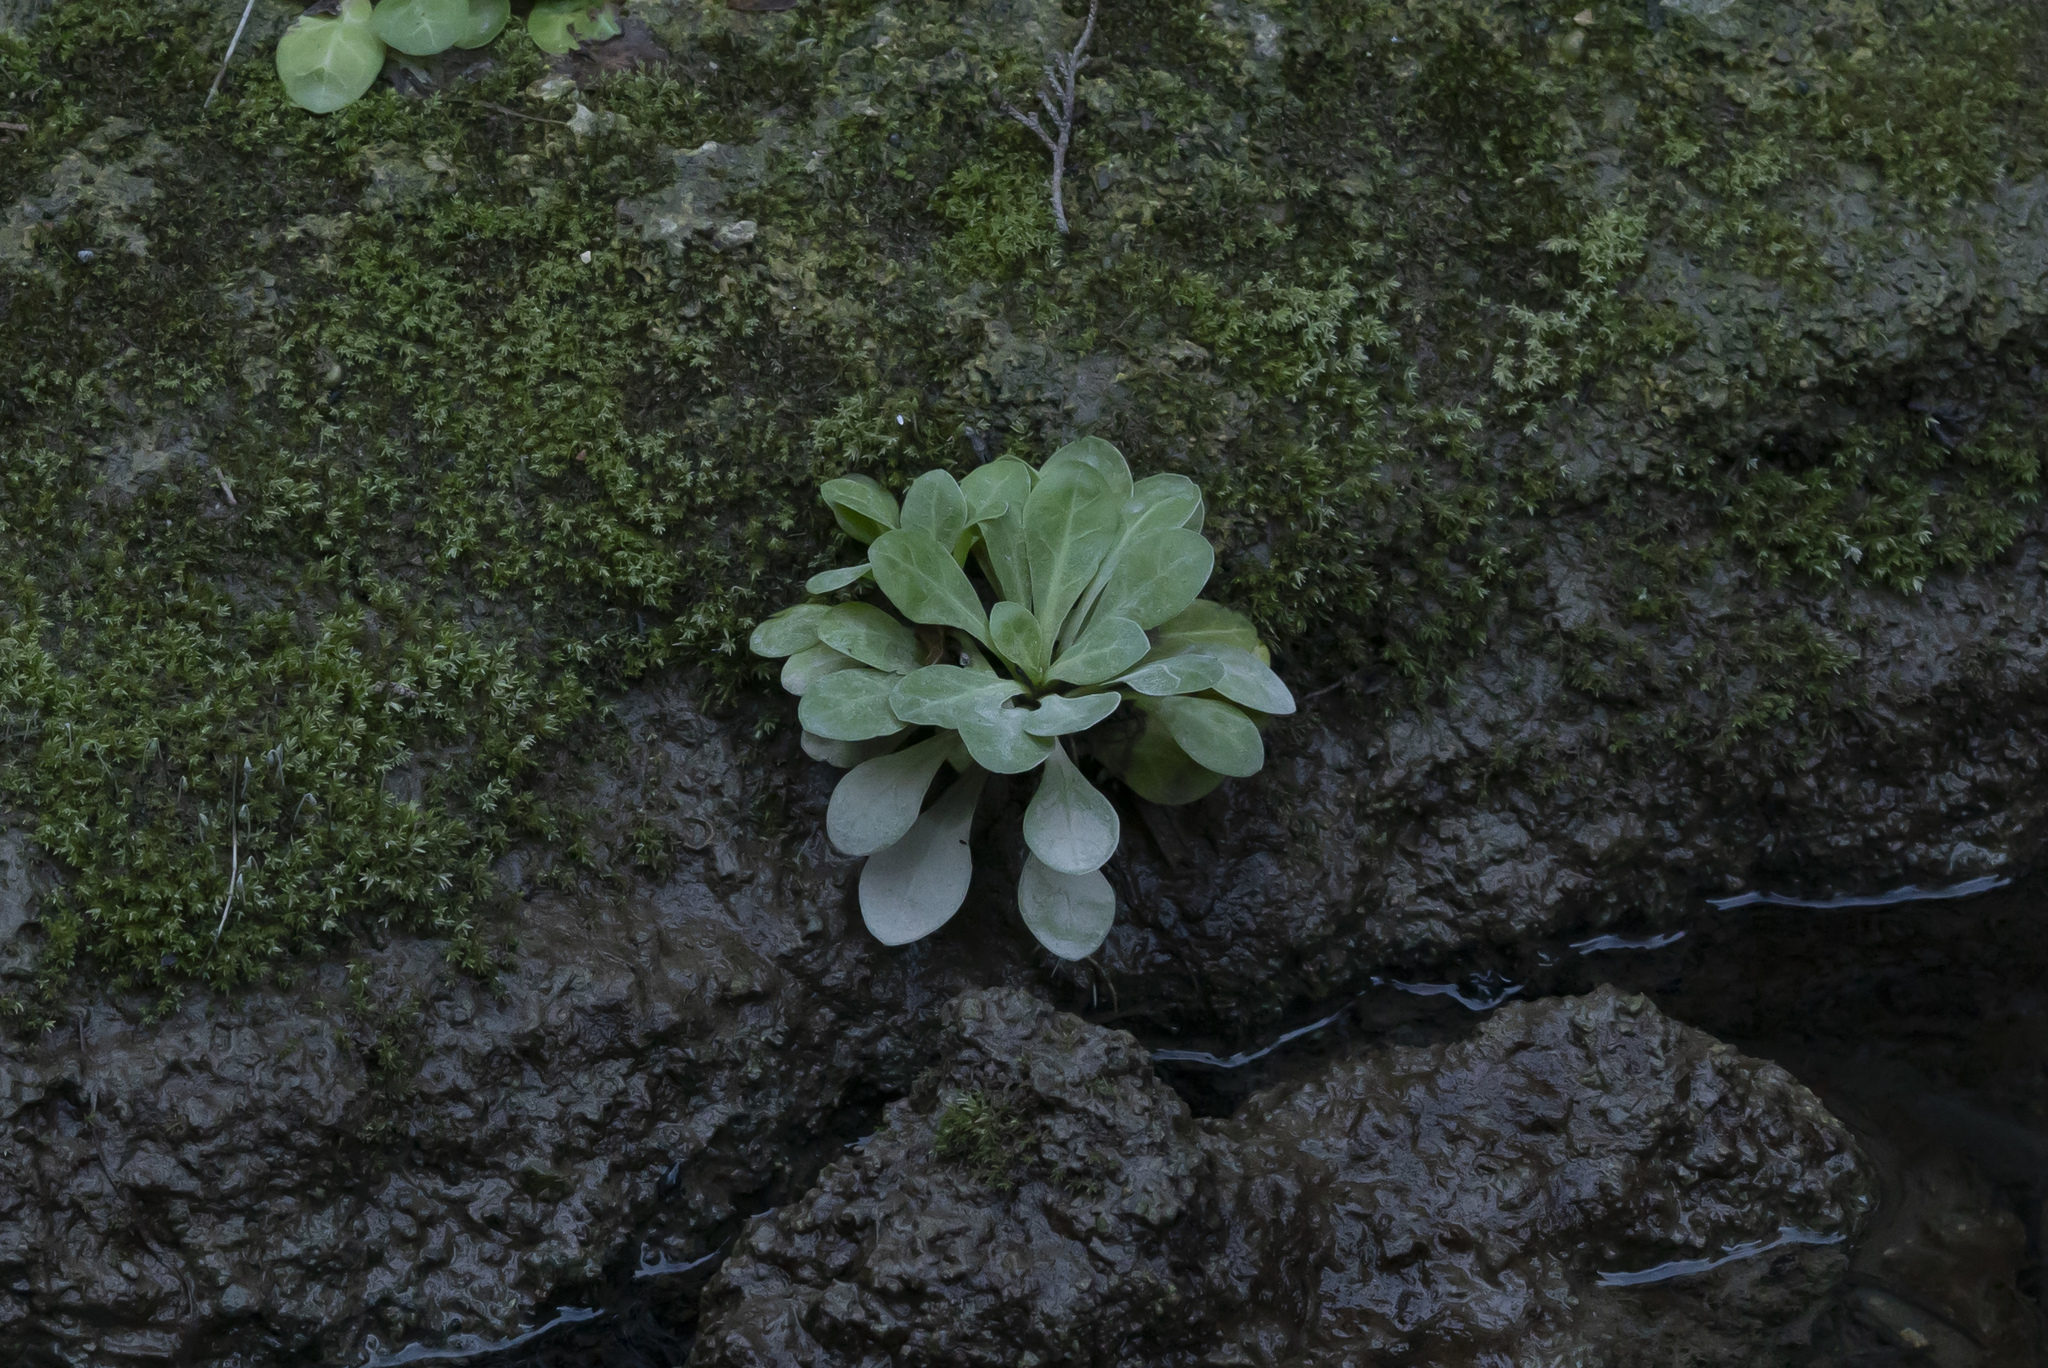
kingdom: Plantae
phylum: Tracheophyta
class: Magnoliopsida
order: Ericales
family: Primulaceae
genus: Samolus
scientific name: Samolus valerandi
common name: Brookweed
